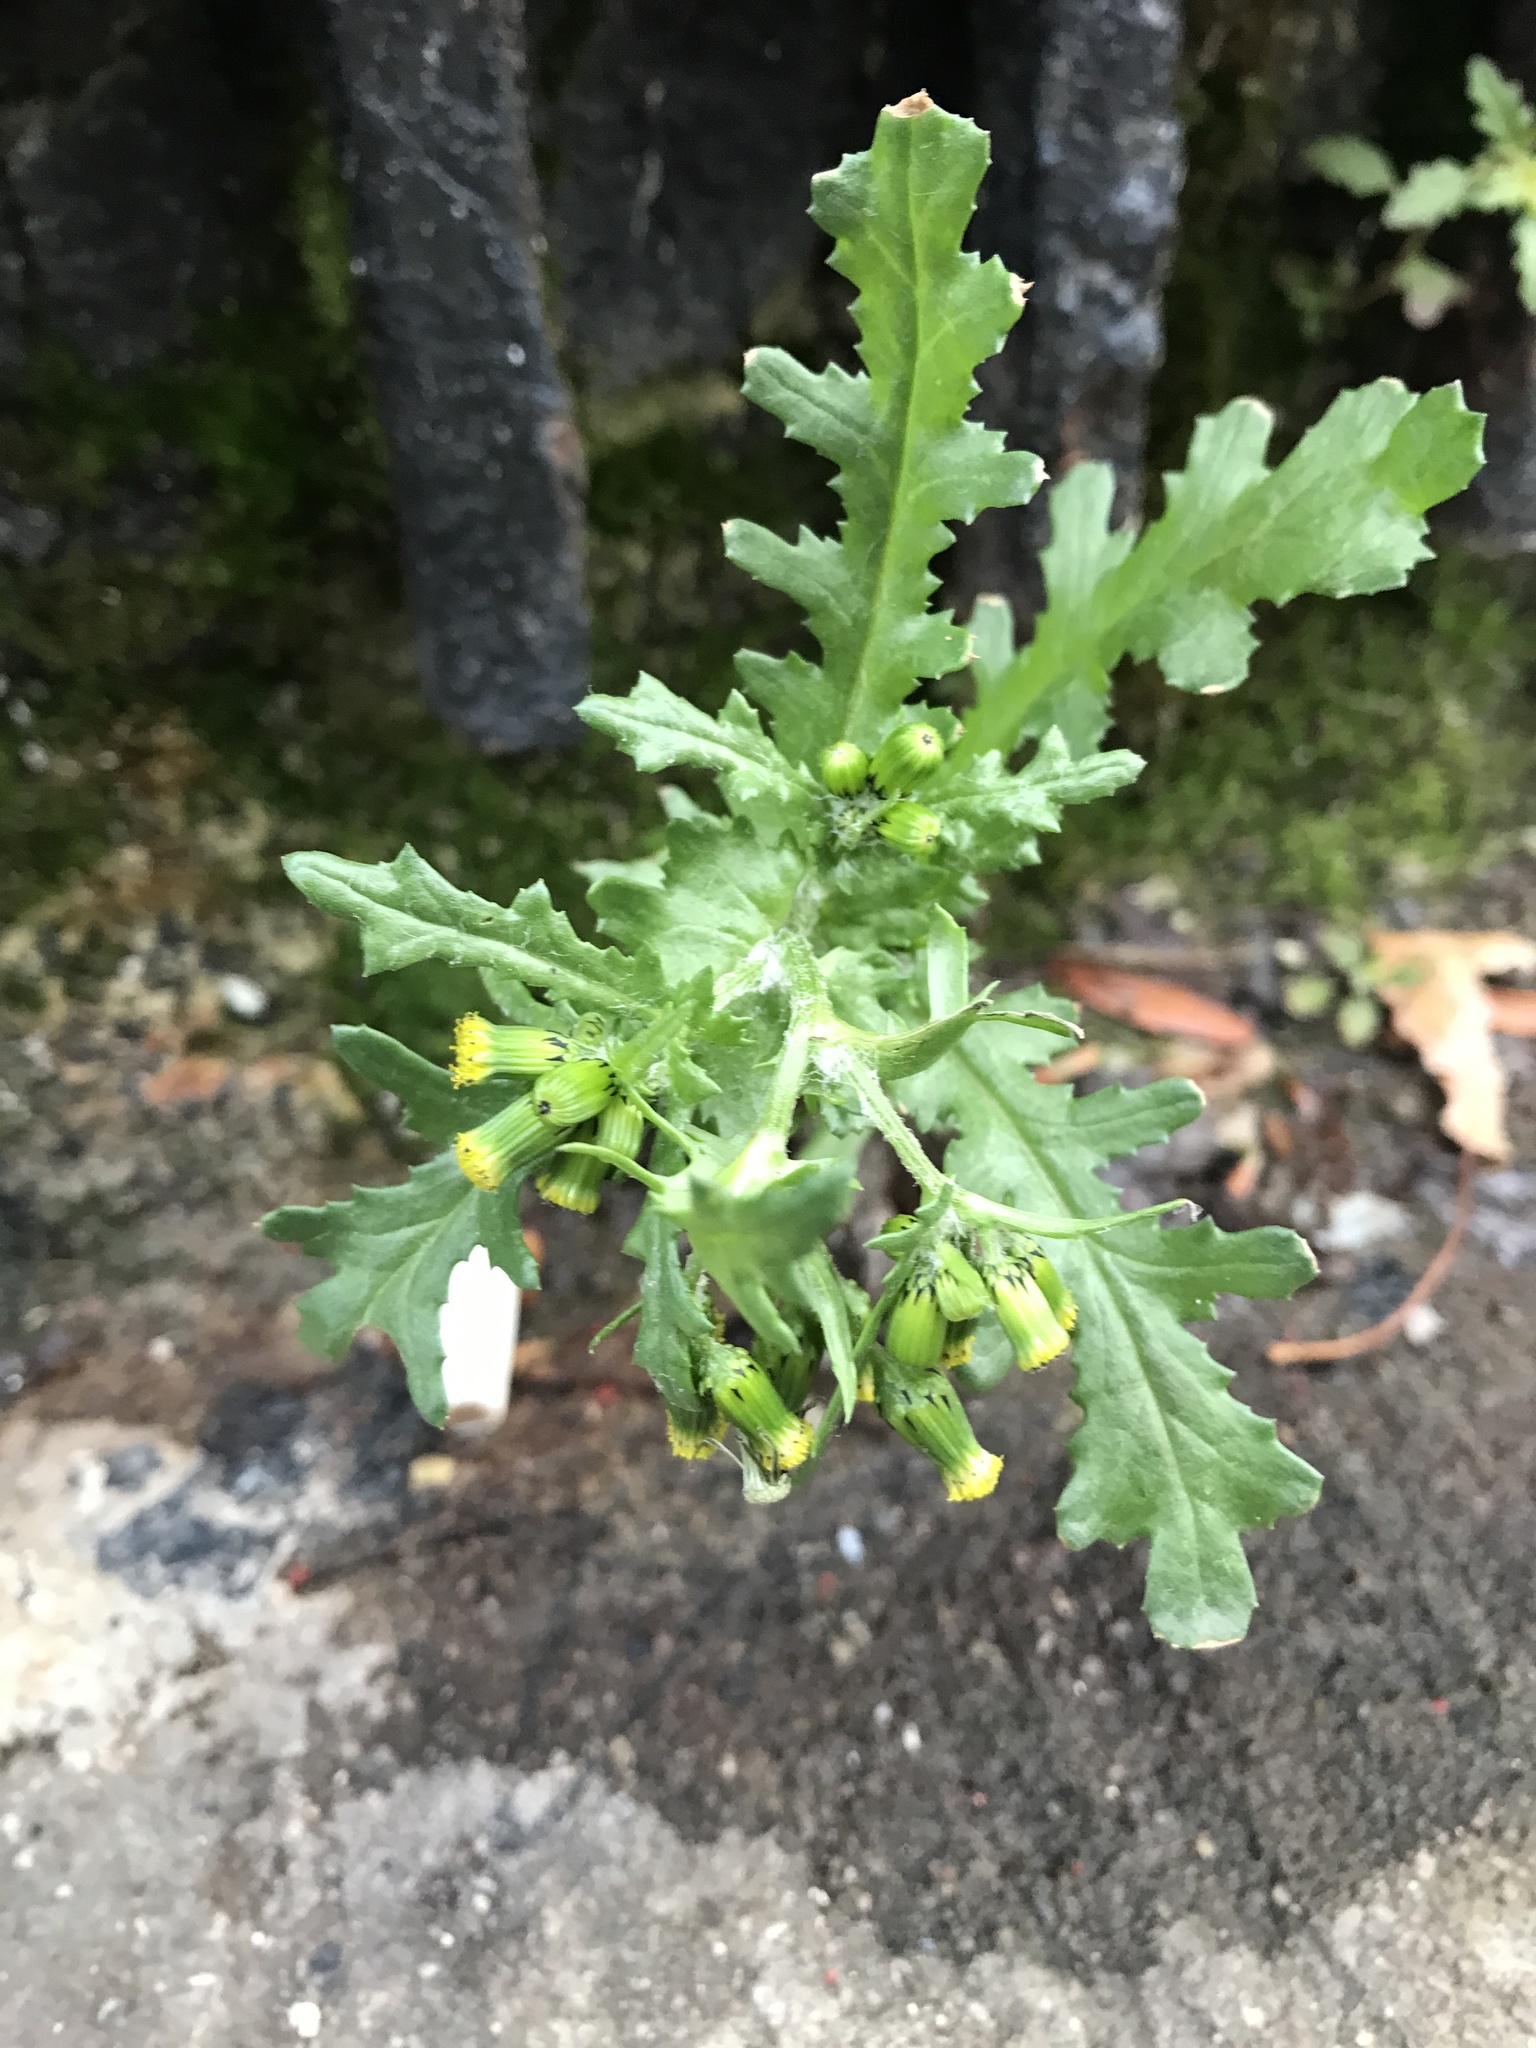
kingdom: Plantae
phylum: Tracheophyta
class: Magnoliopsida
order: Asterales
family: Asteraceae
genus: Senecio
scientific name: Senecio vulgaris
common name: Old-man-in-the-spring
